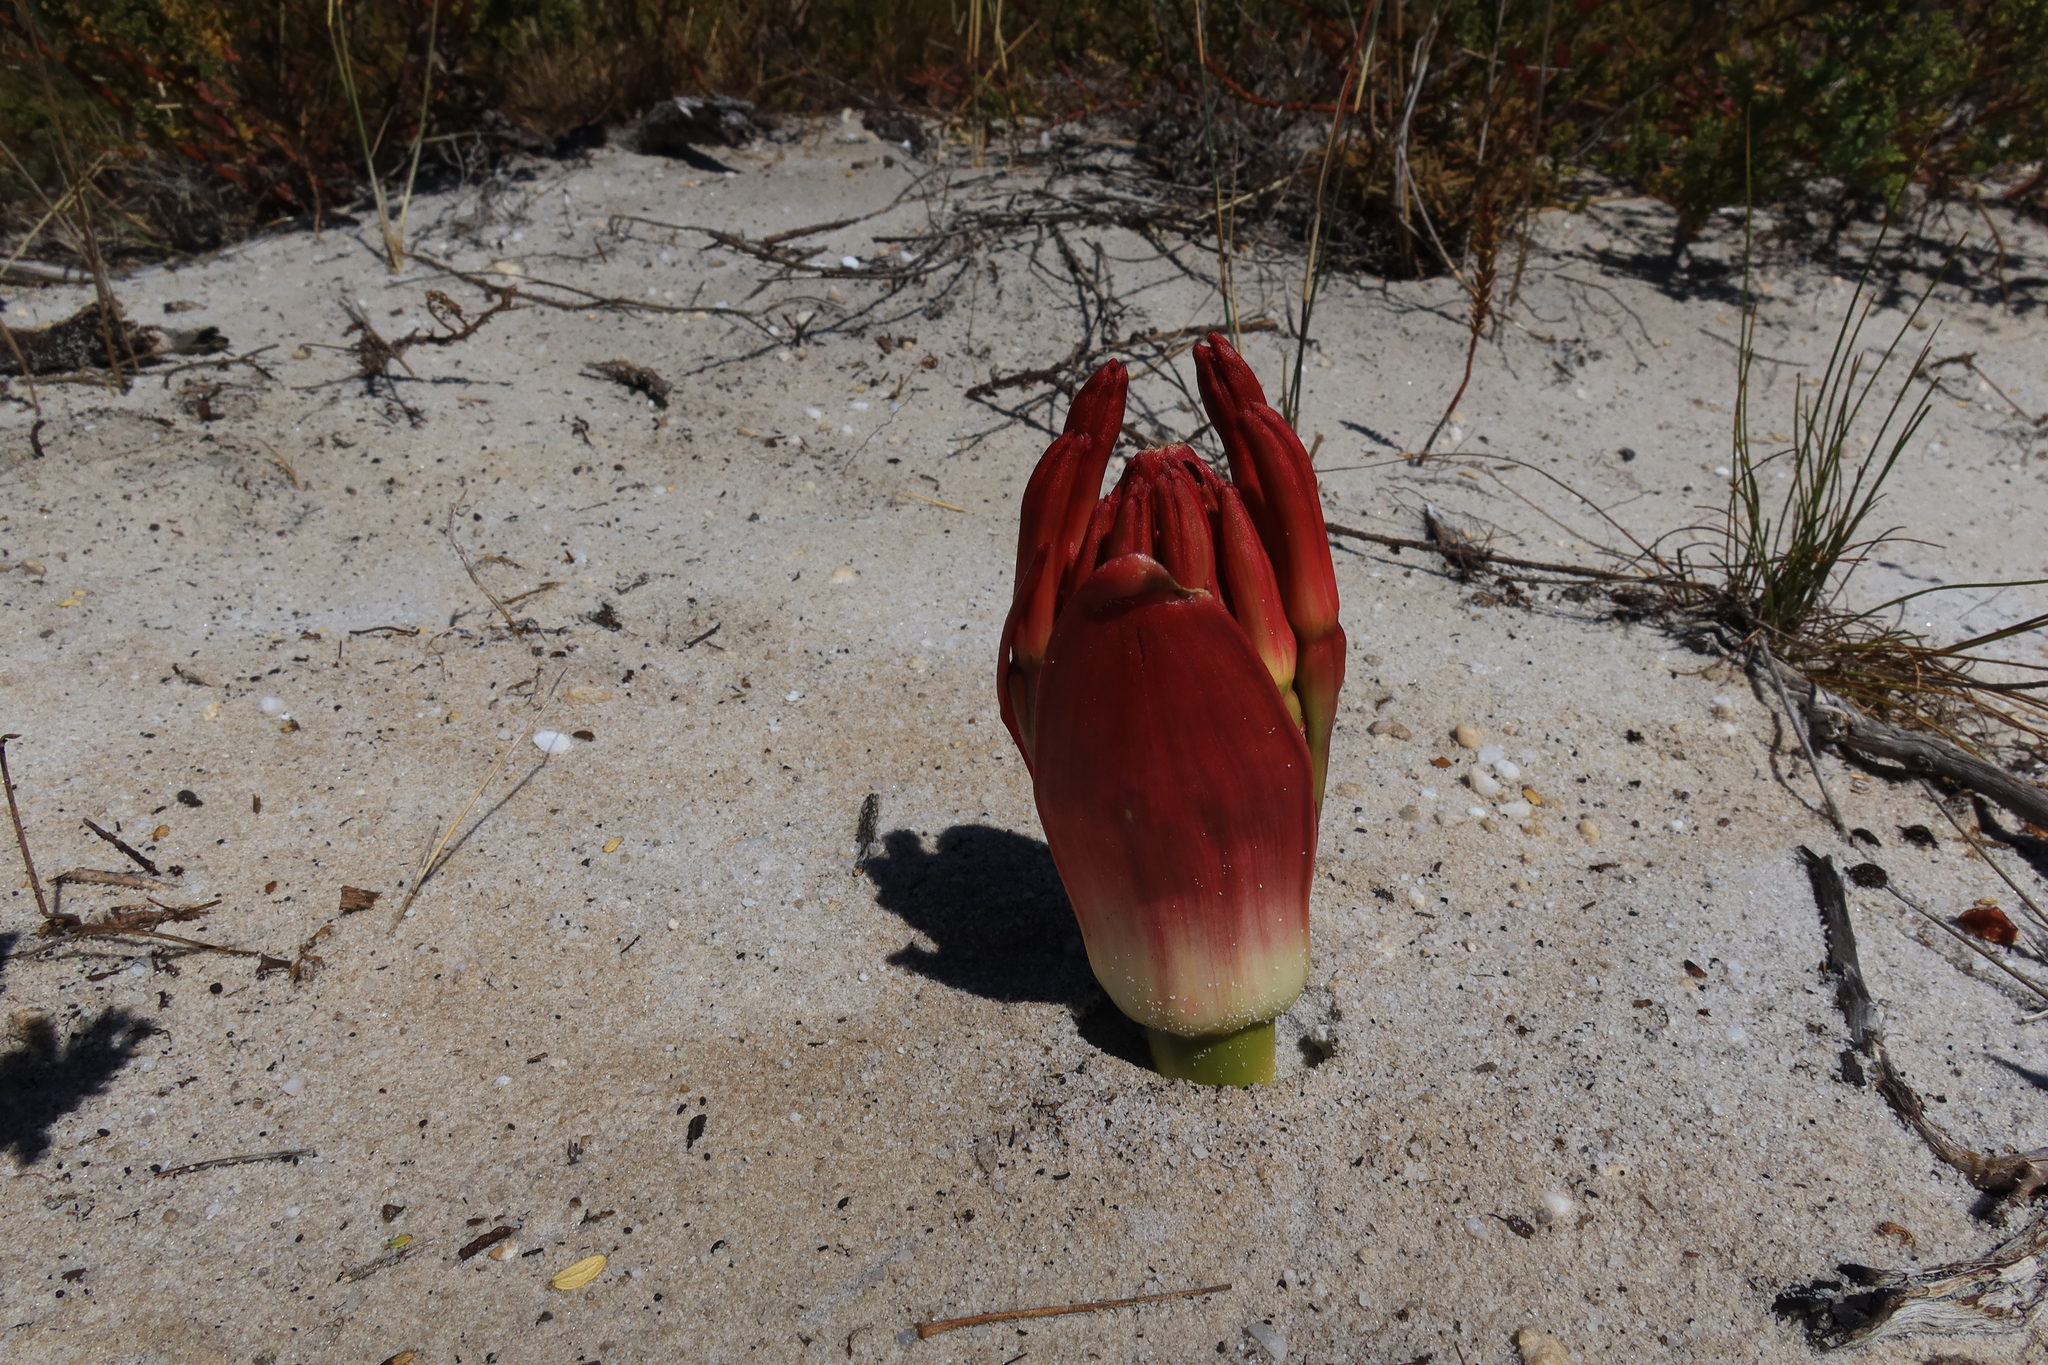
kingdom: Plantae
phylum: Tracheophyta
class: Liliopsida
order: Asparagales
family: Amaryllidaceae
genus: Brunsvigia
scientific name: Brunsvigia orientalis
